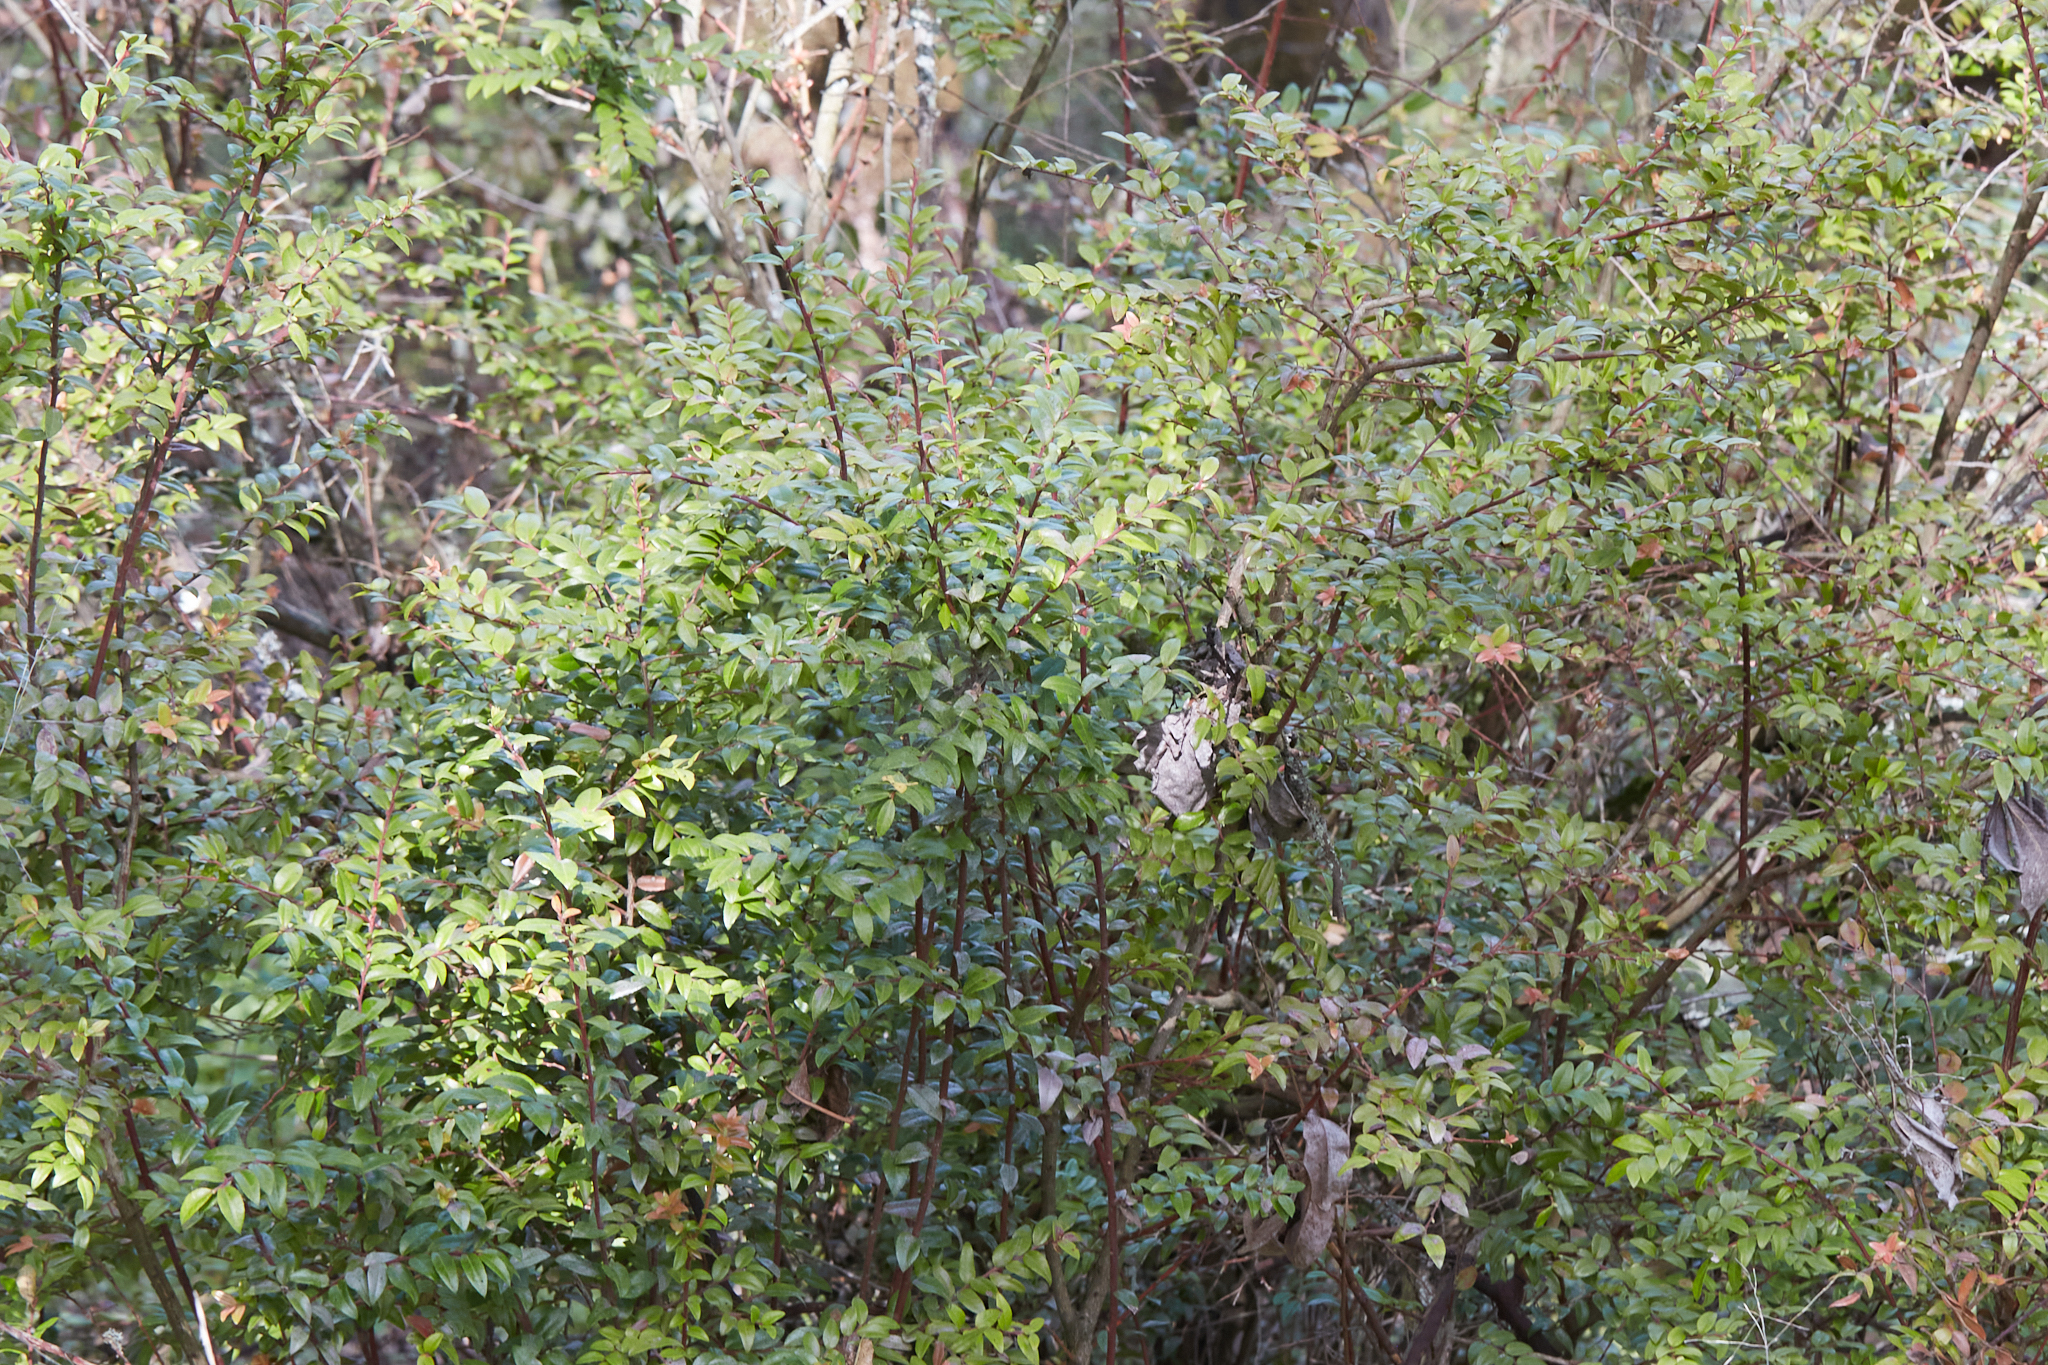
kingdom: Plantae
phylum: Tracheophyta
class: Magnoliopsida
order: Ericales
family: Ericaceae
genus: Vaccinium
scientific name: Vaccinium ovatum
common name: California-huckleberry
